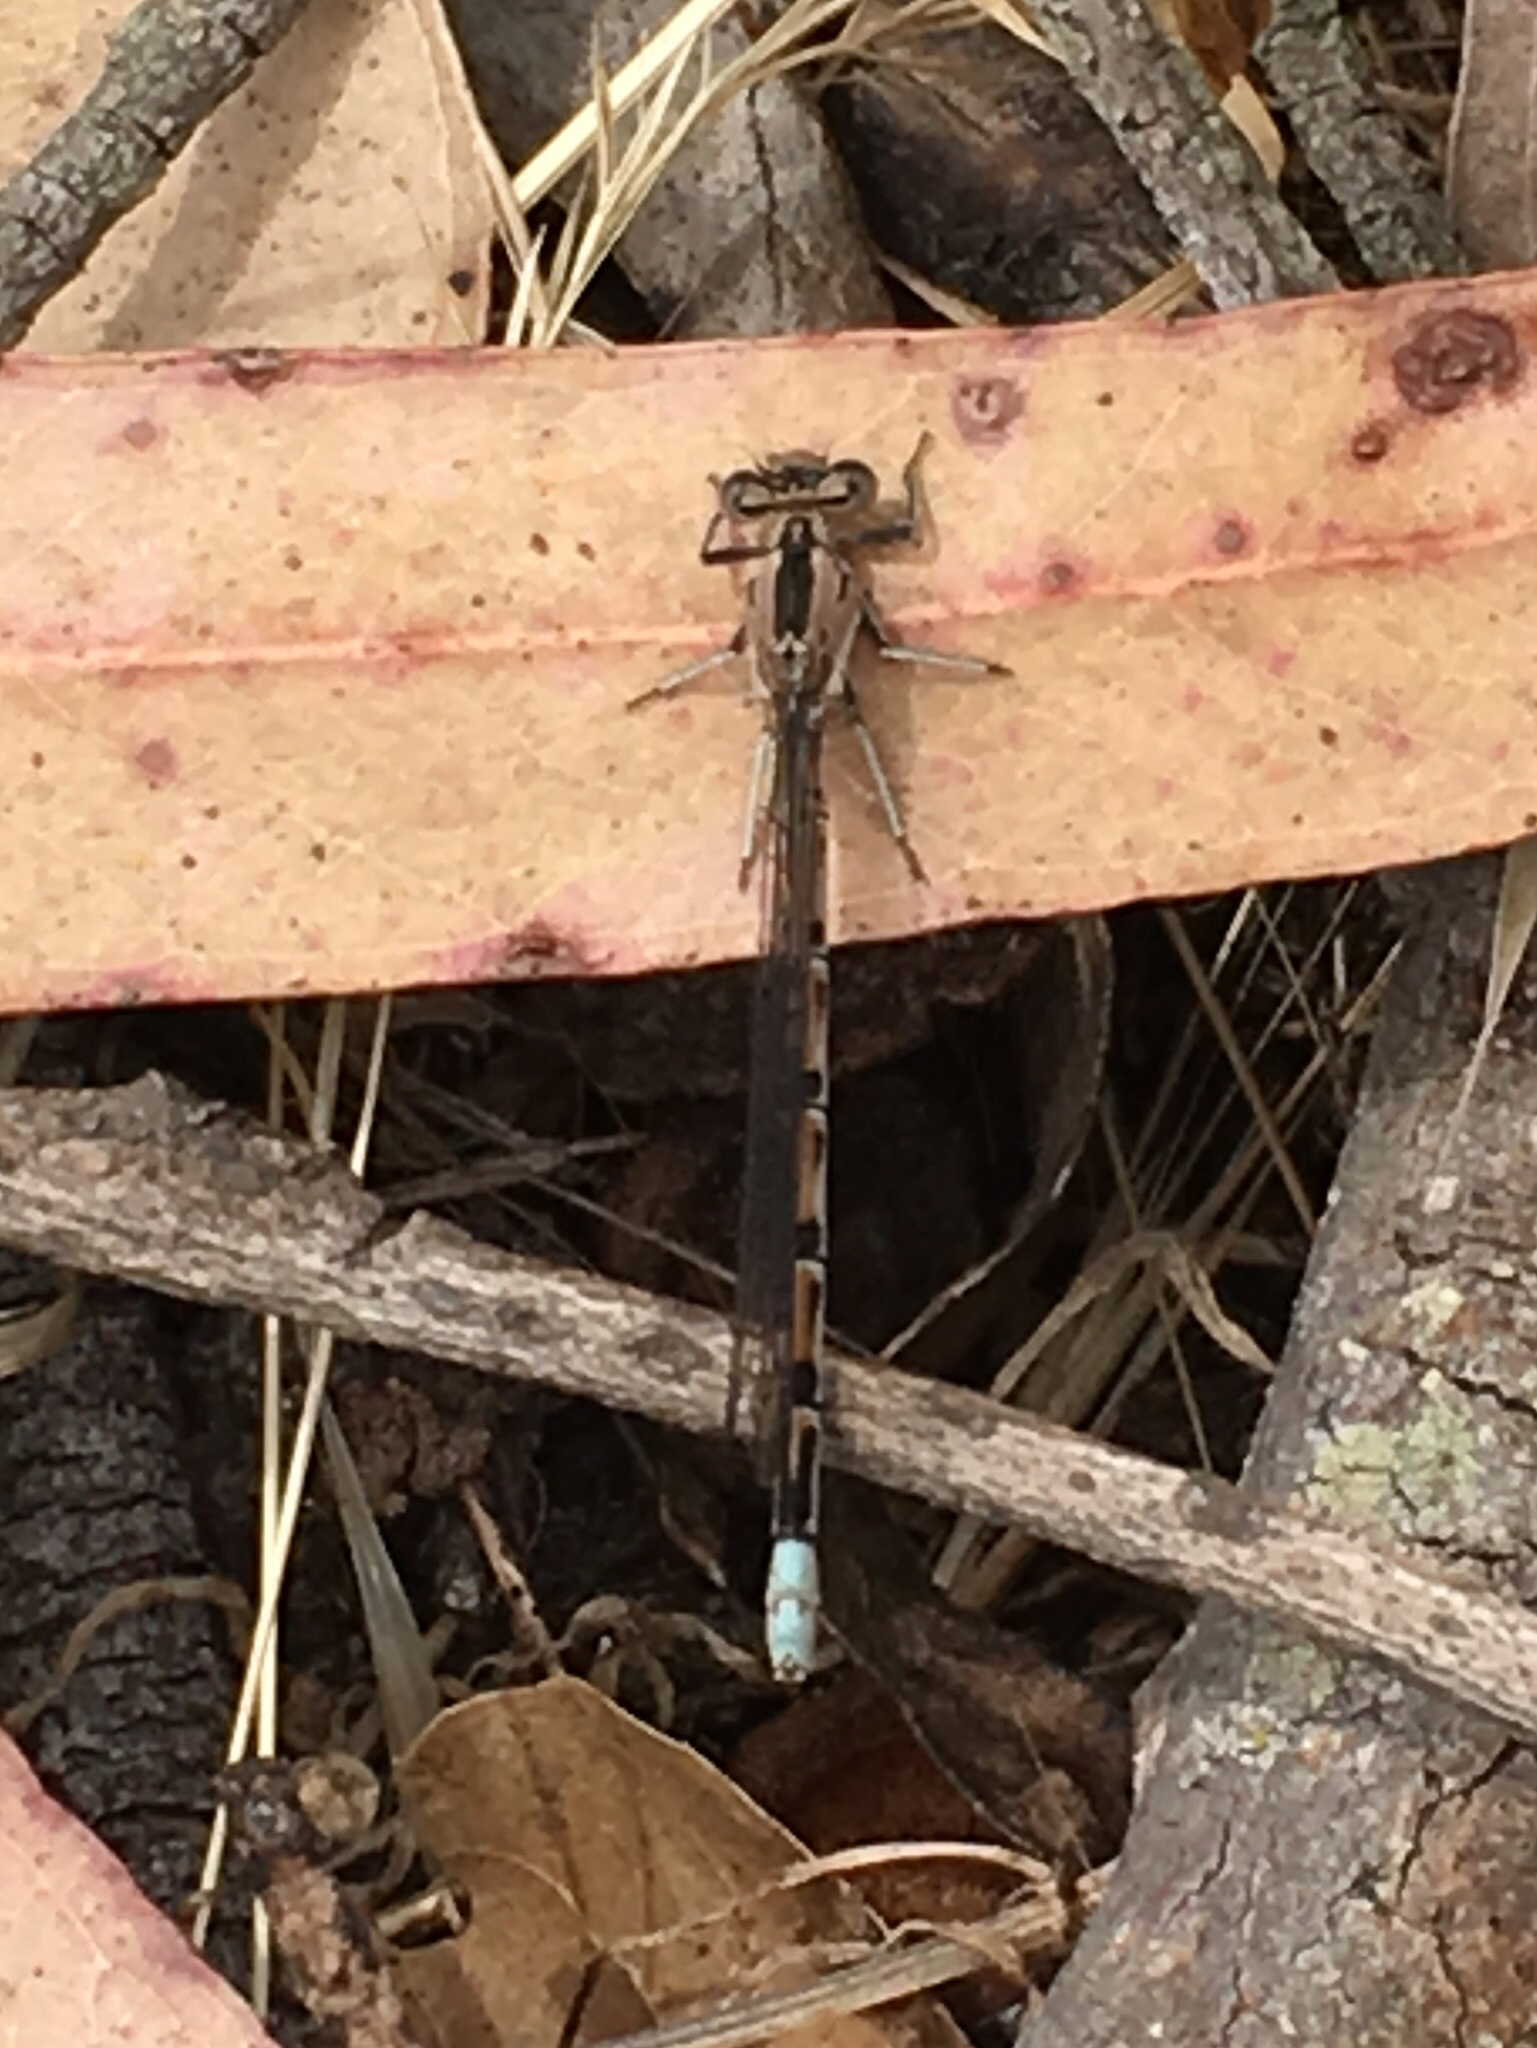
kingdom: Animalia
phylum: Arthropoda
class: Insecta
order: Odonata
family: Coenagrionidae
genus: Argia
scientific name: Argia vivida
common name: Vivid dancer
